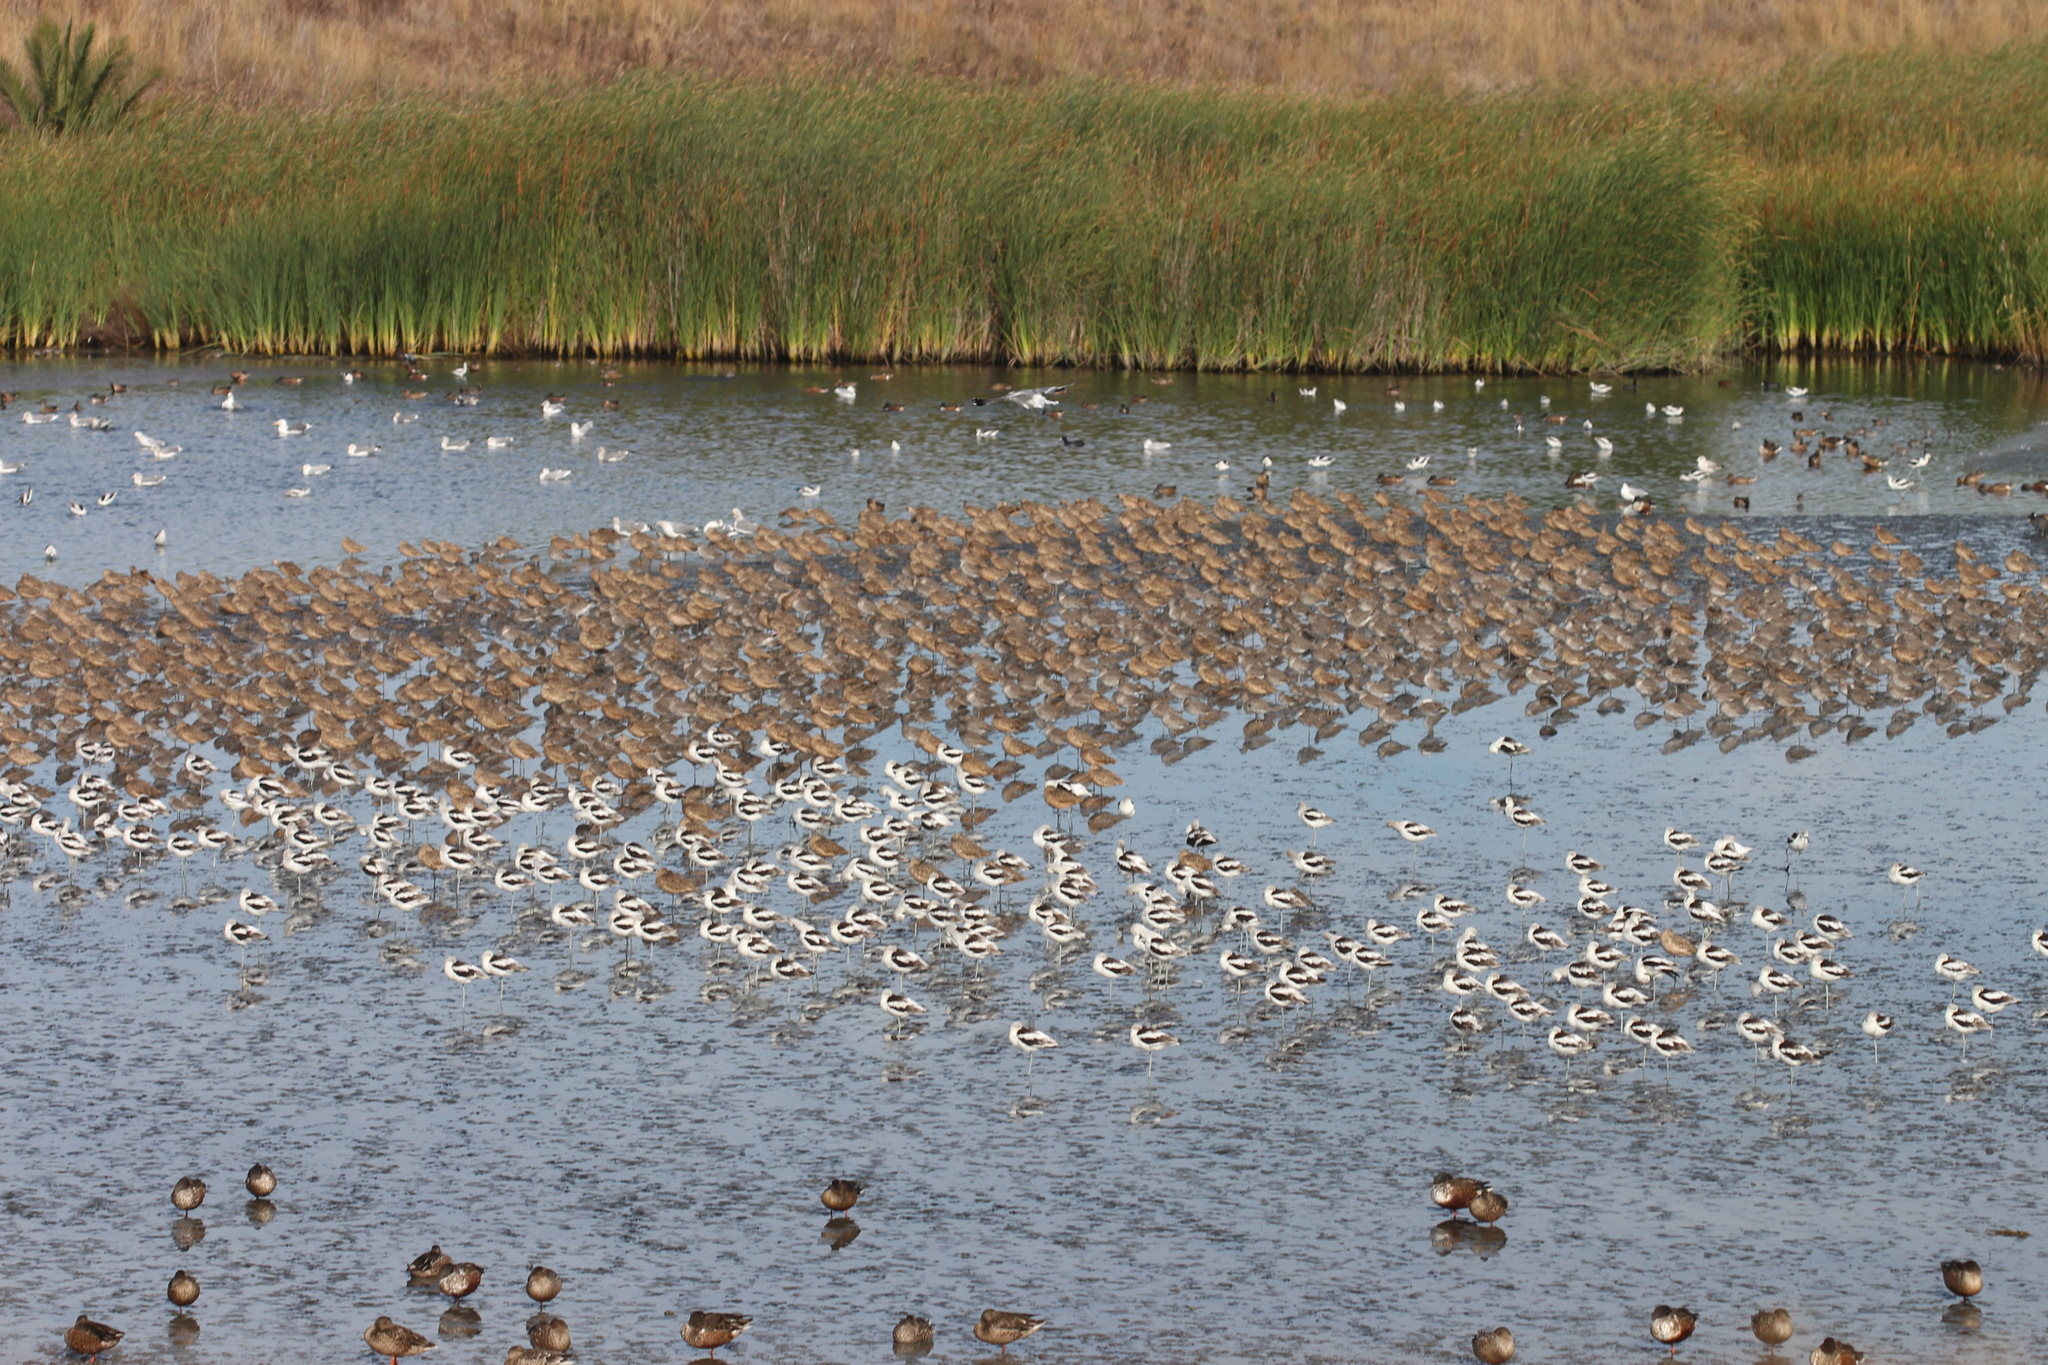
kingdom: Animalia
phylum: Chordata
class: Aves
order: Charadriiformes
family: Recurvirostridae
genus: Recurvirostra
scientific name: Recurvirostra americana
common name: American avocet
